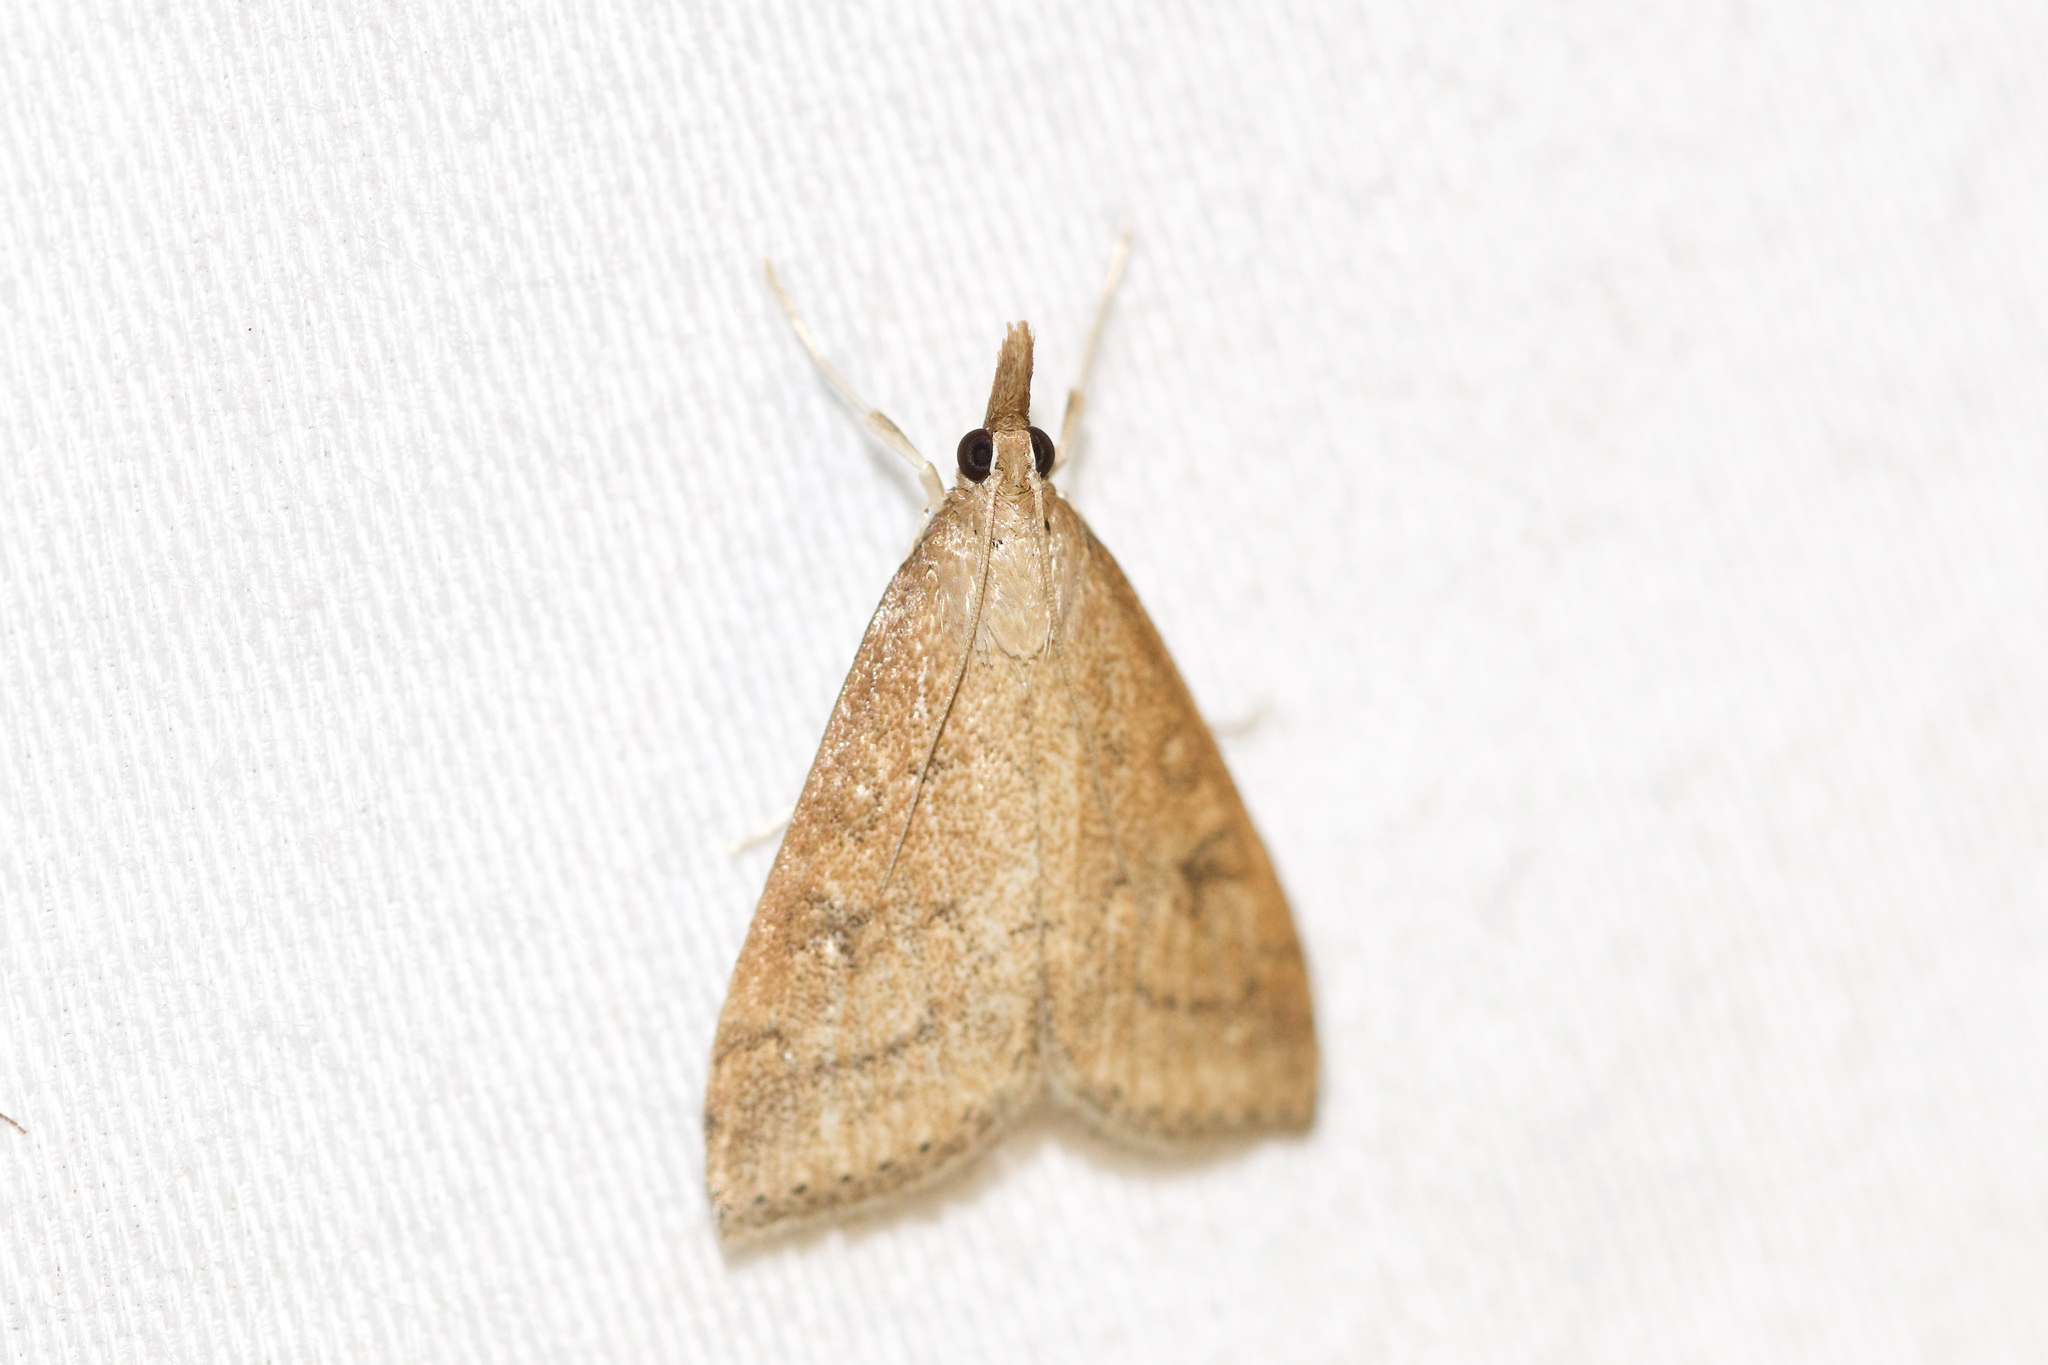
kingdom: Animalia
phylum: Arthropoda
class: Insecta
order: Lepidoptera
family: Crambidae
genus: Udea
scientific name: Udea rubigalis
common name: Celery leaftier moth
